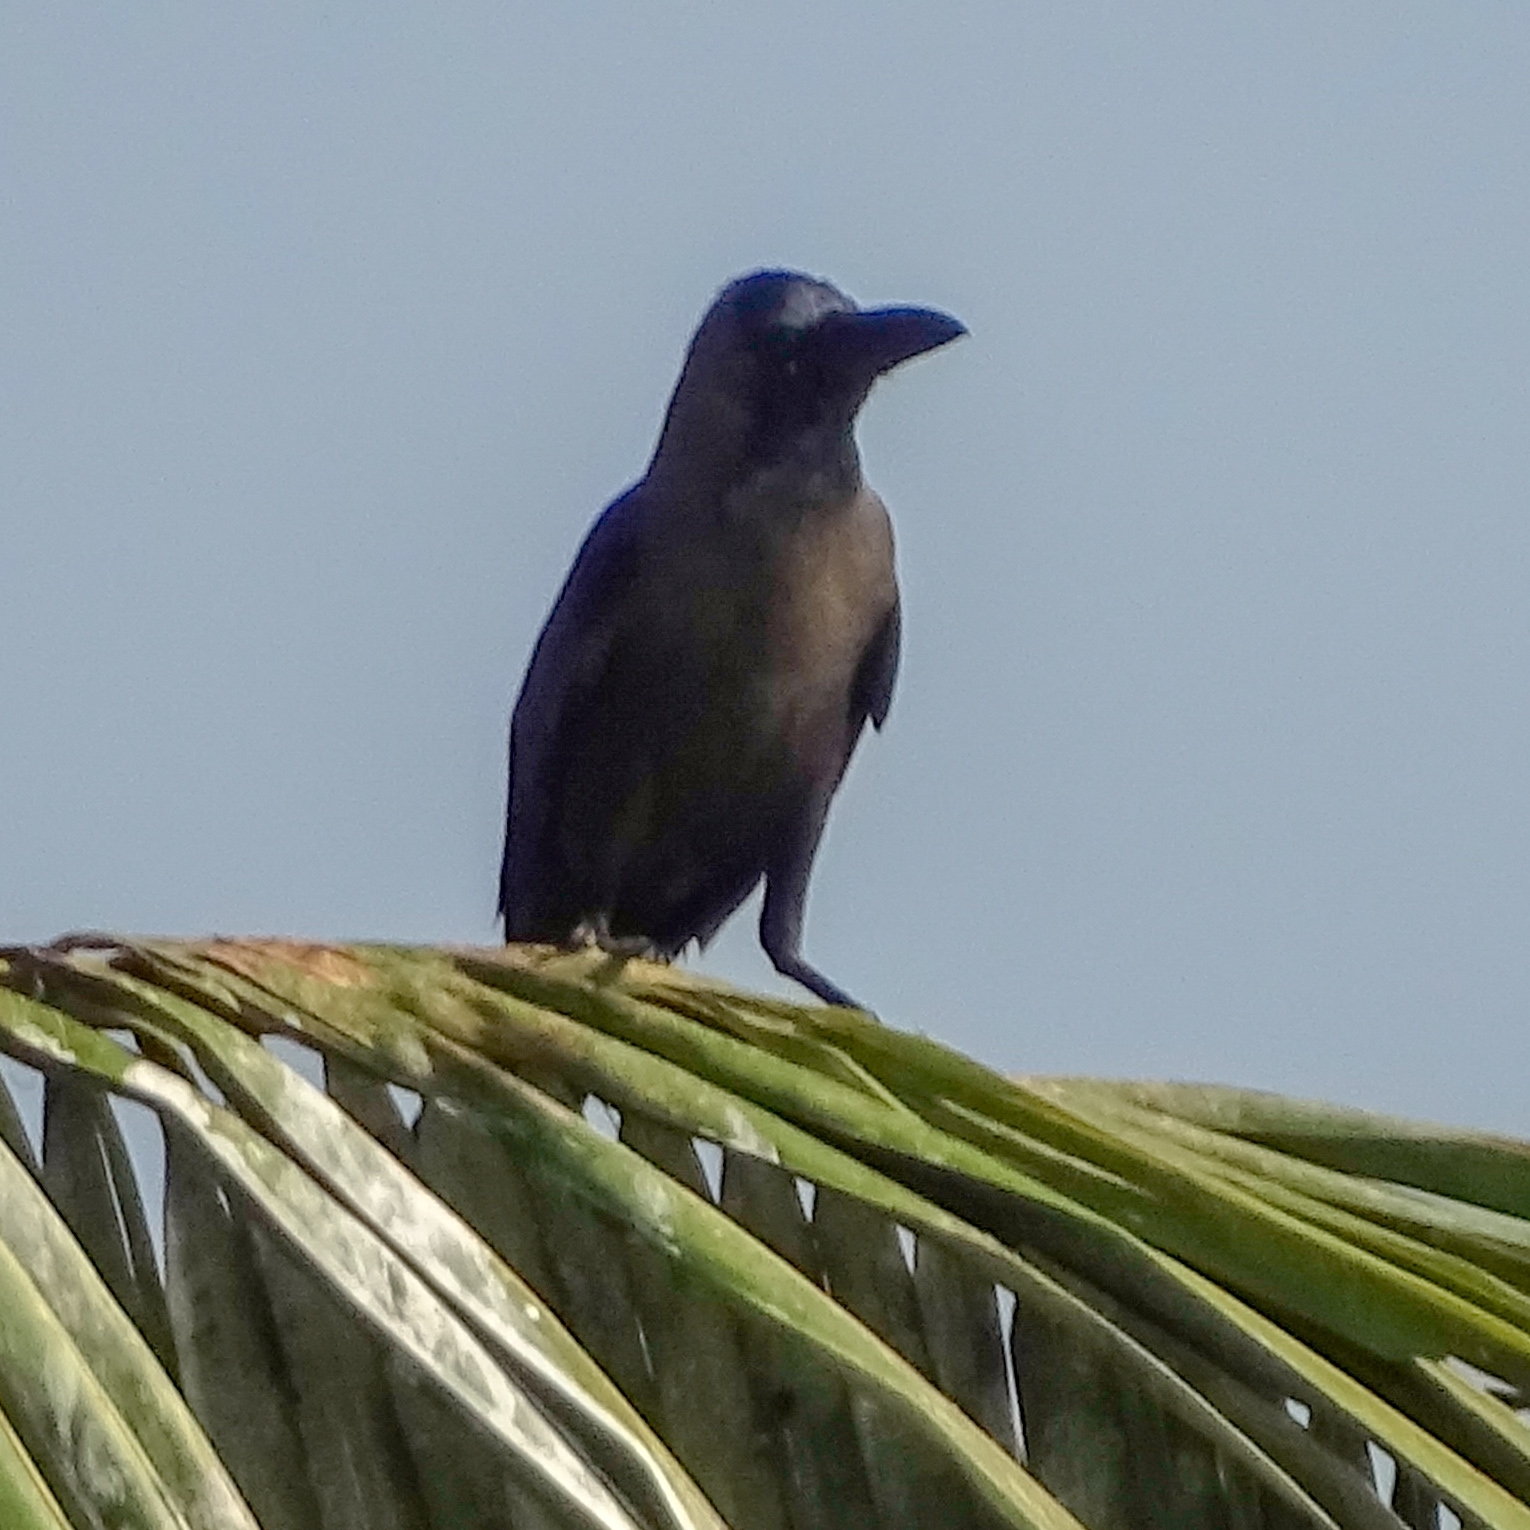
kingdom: Animalia
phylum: Chordata
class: Aves
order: Passeriformes
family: Corvidae
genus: Corvus
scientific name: Corvus splendens
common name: House crow
